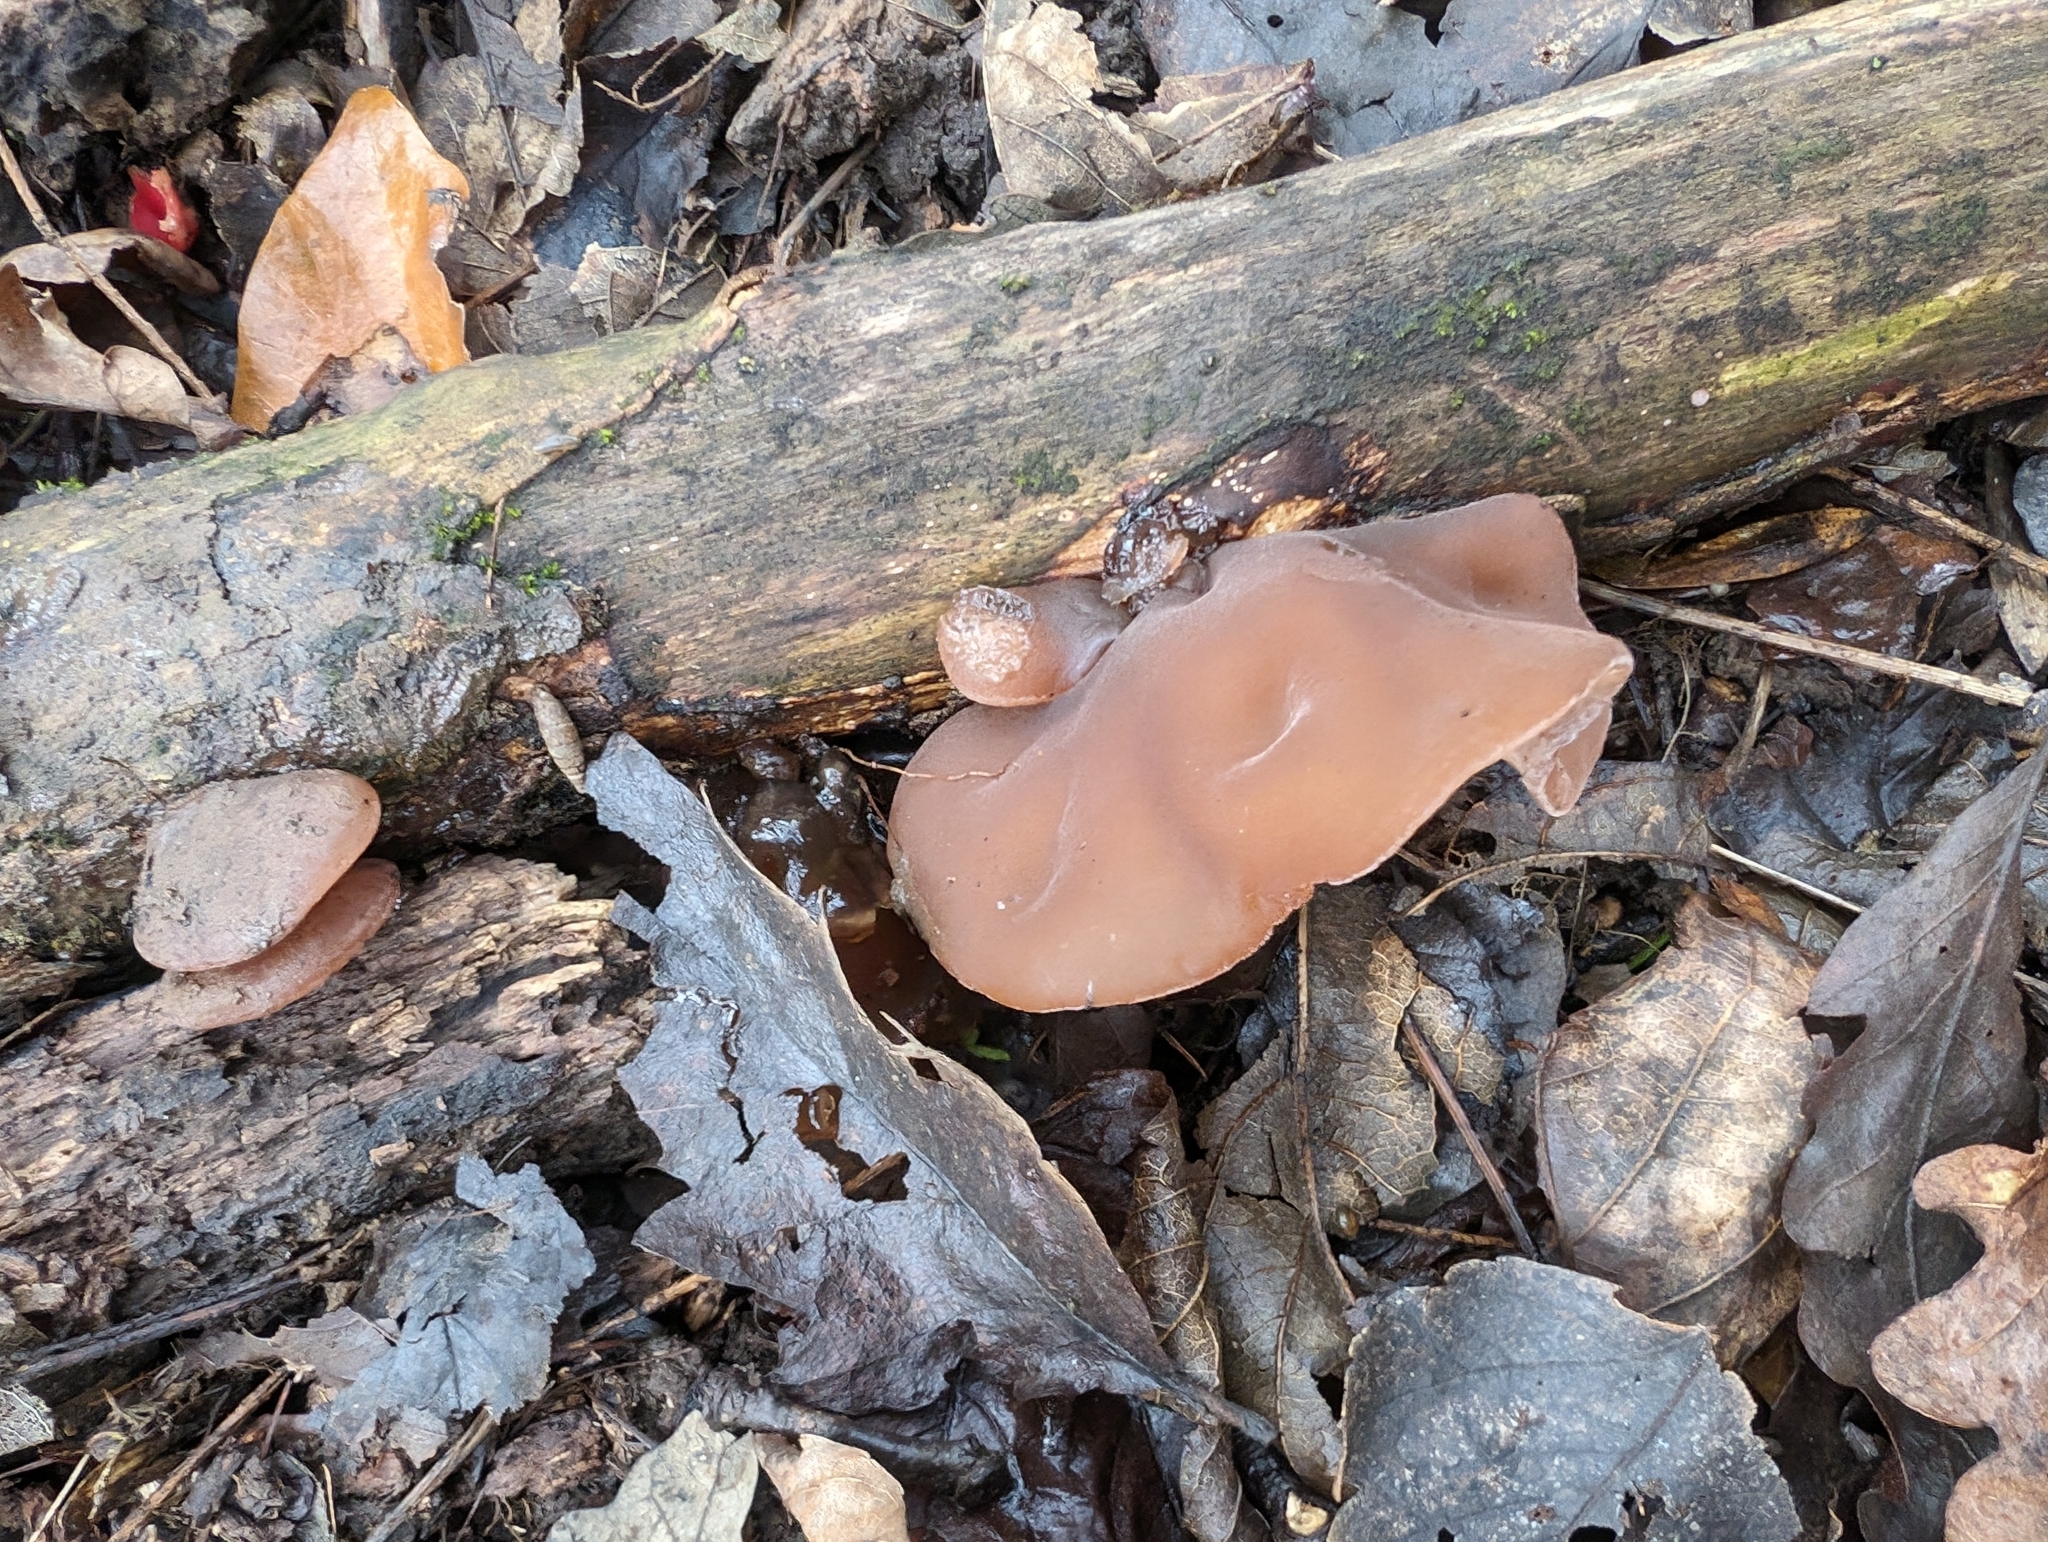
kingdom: Fungi
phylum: Basidiomycota
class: Agaricomycetes
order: Auriculariales
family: Auriculariaceae
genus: Auricularia
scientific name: Auricularia auricula-judae
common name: Jelly ear
